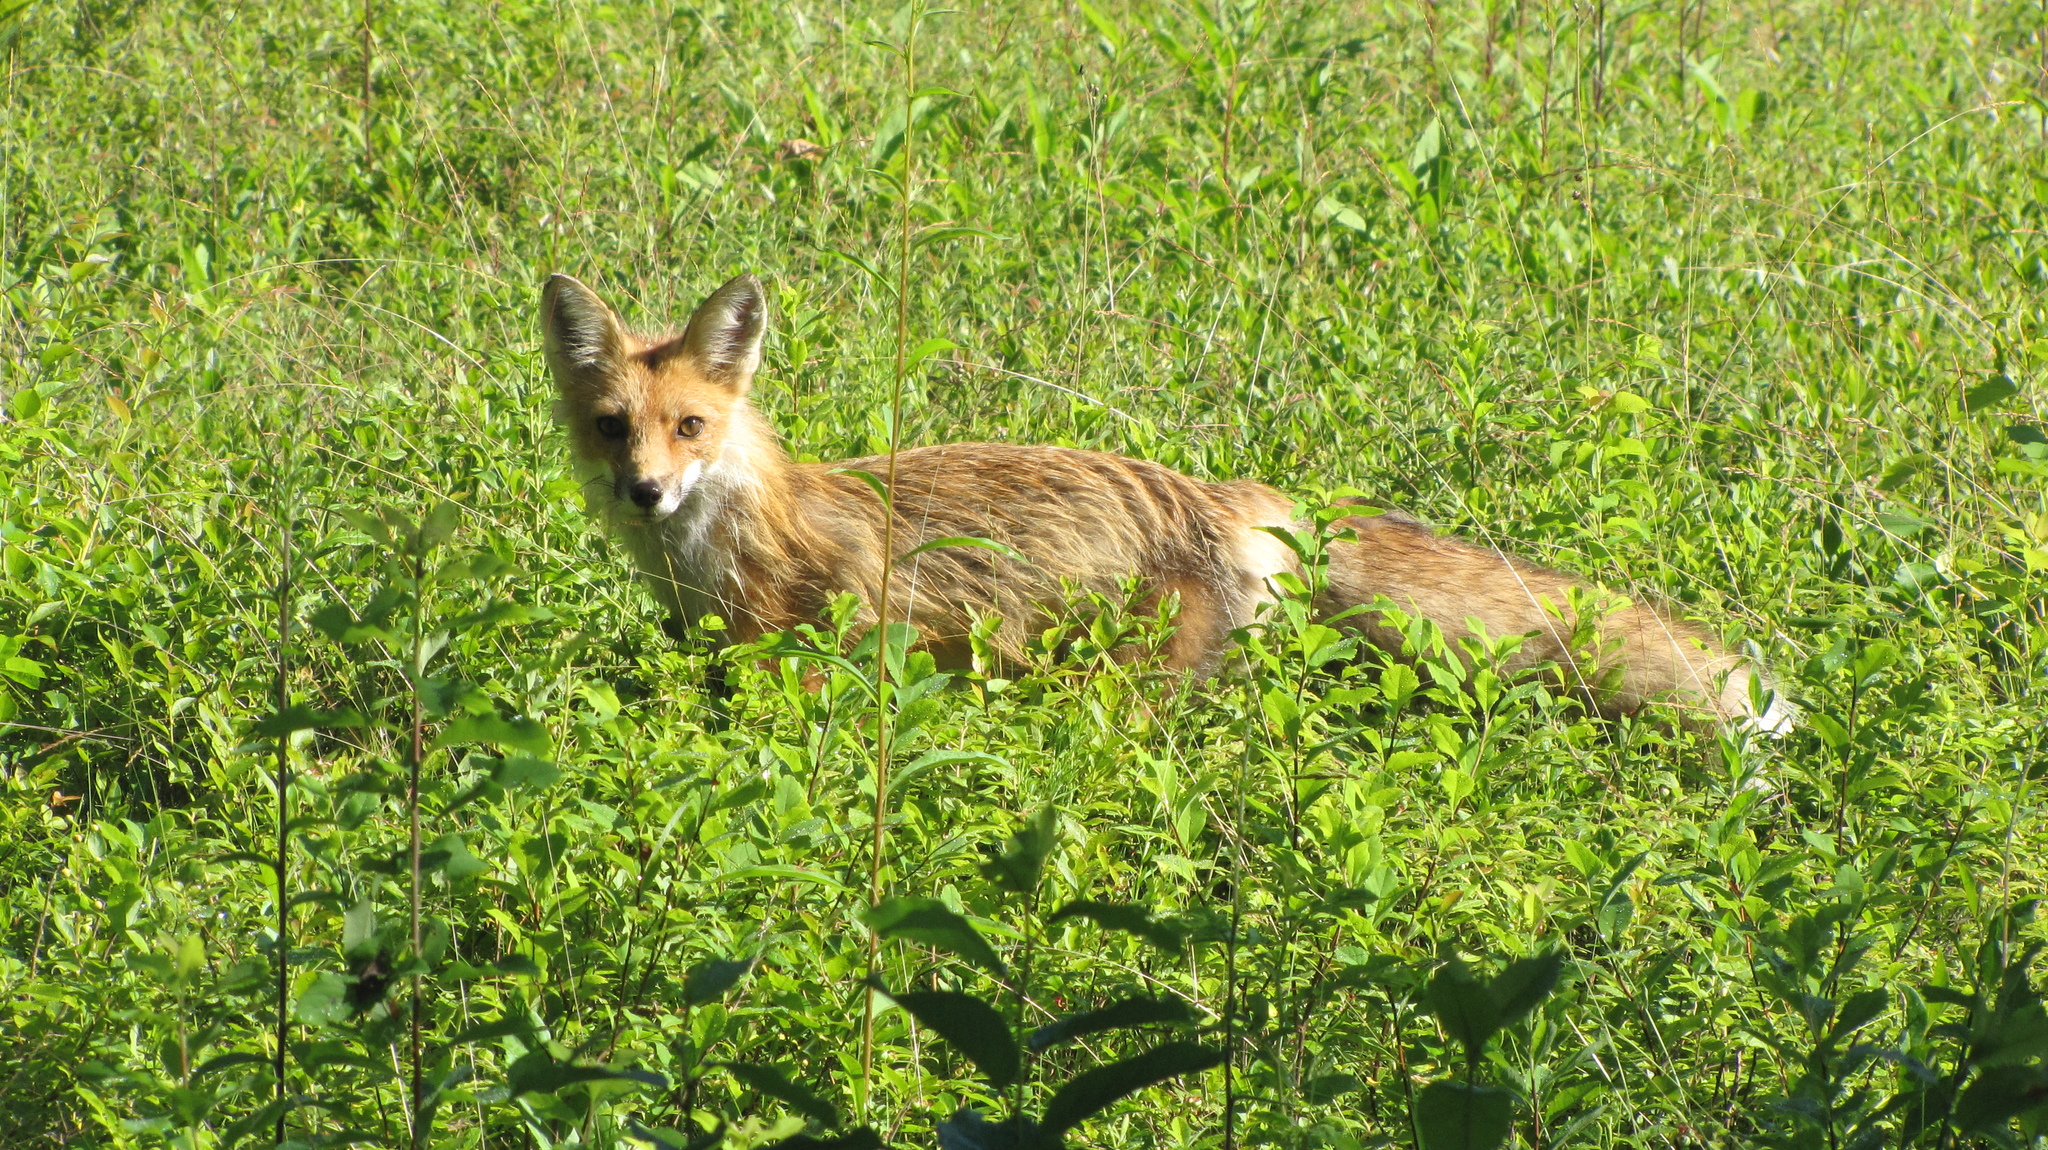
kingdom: Animalia
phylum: Chordata
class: Mammalia
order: Carnivora
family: Canidae
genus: Vulpes
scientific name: Vulpes vulpes
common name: Red fox
